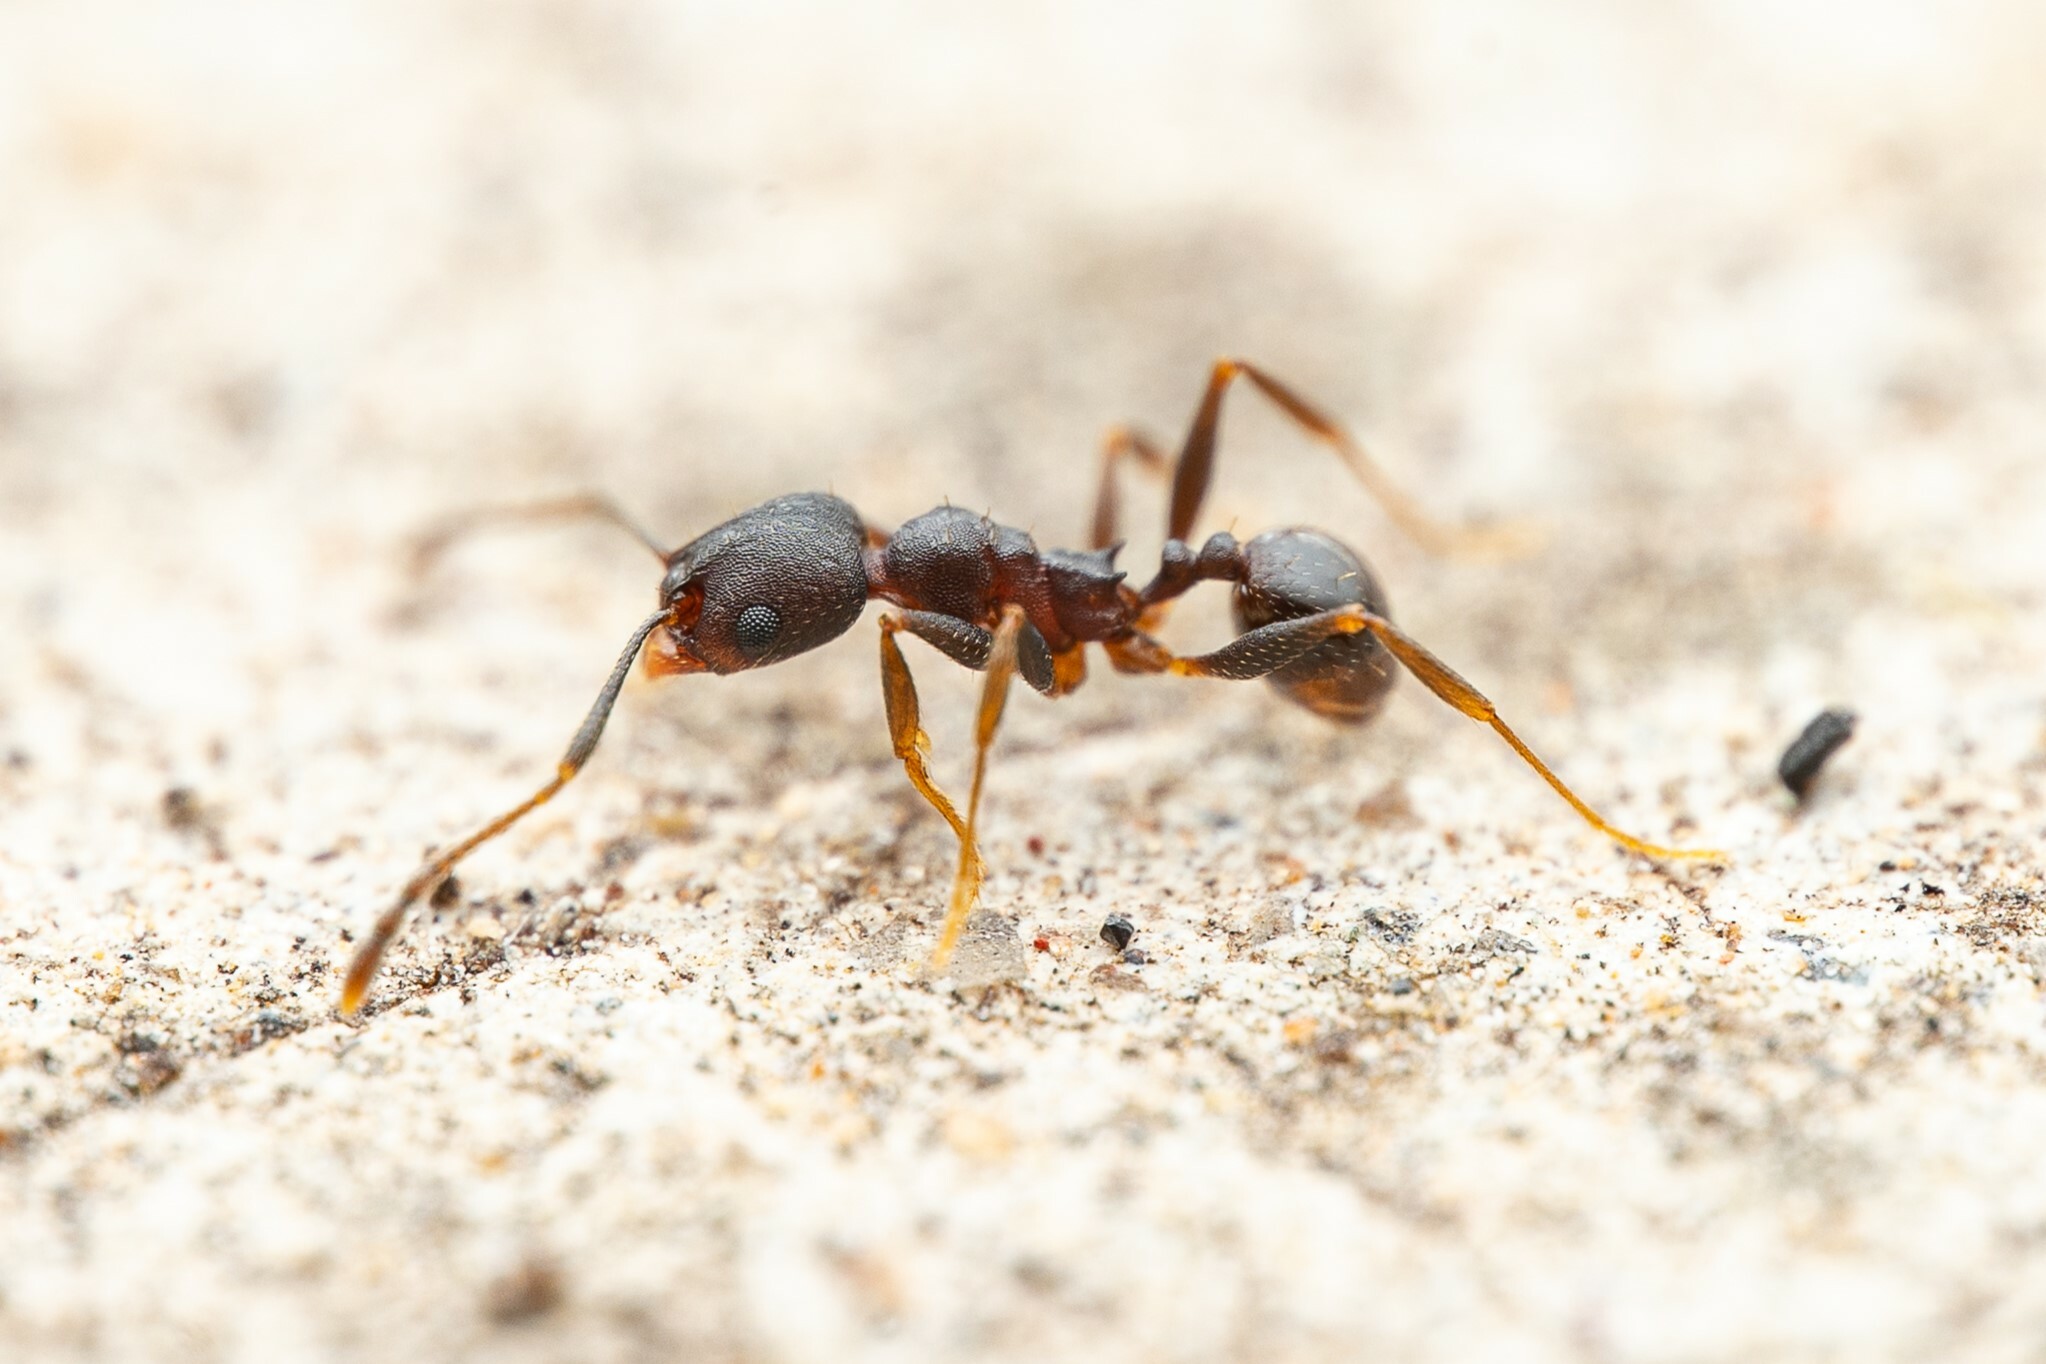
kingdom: Animalia
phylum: Arthropoda
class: Insecta
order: Hymenoptera
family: Formicidae
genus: Pheidole
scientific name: Pheidole
